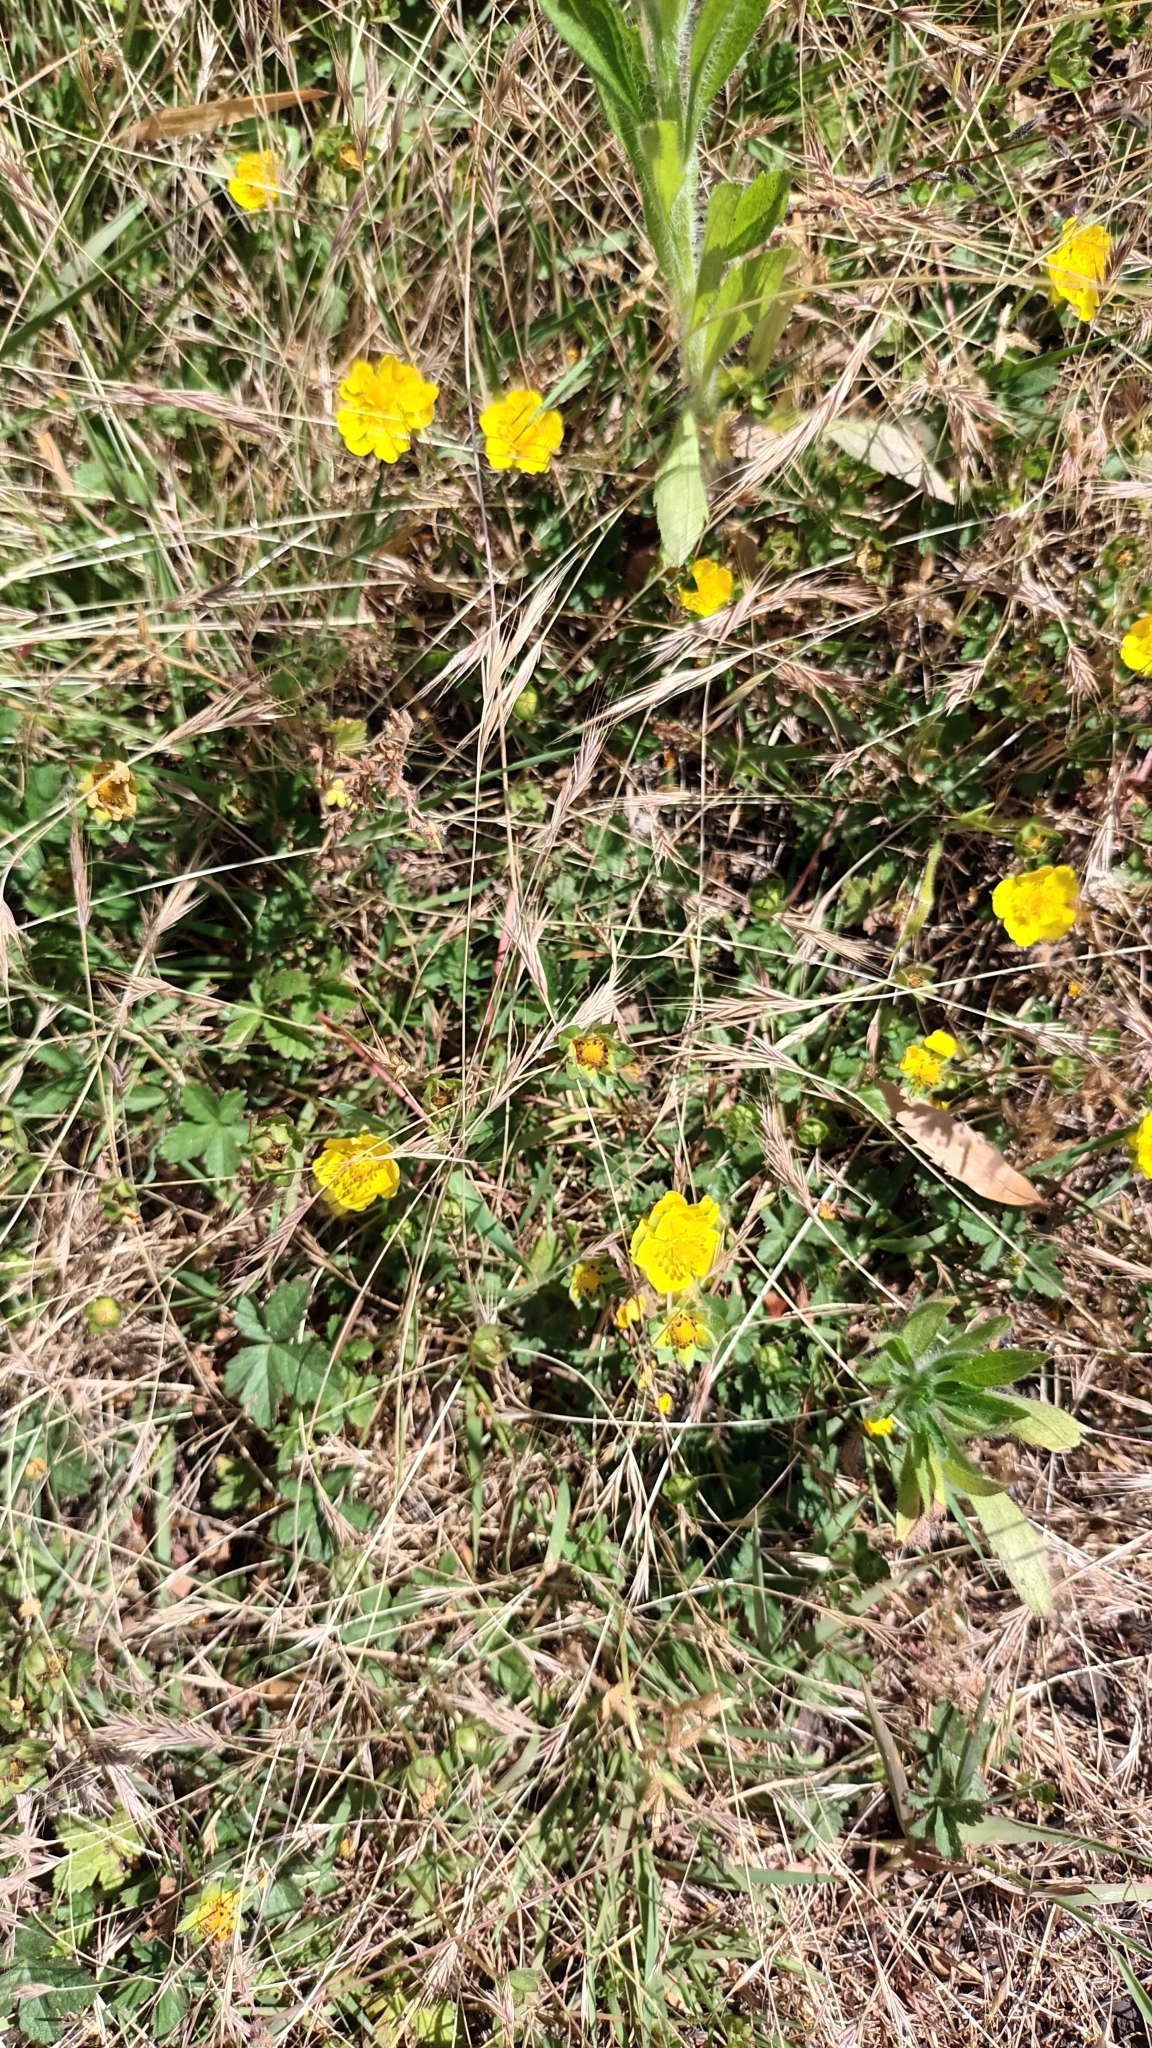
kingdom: Plantae
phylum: Tracheophyta
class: Magnoliopsida
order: Rosales
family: Rosaceae
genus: Potentilla
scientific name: Potentilla reptans
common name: Creeping cinquefoil
